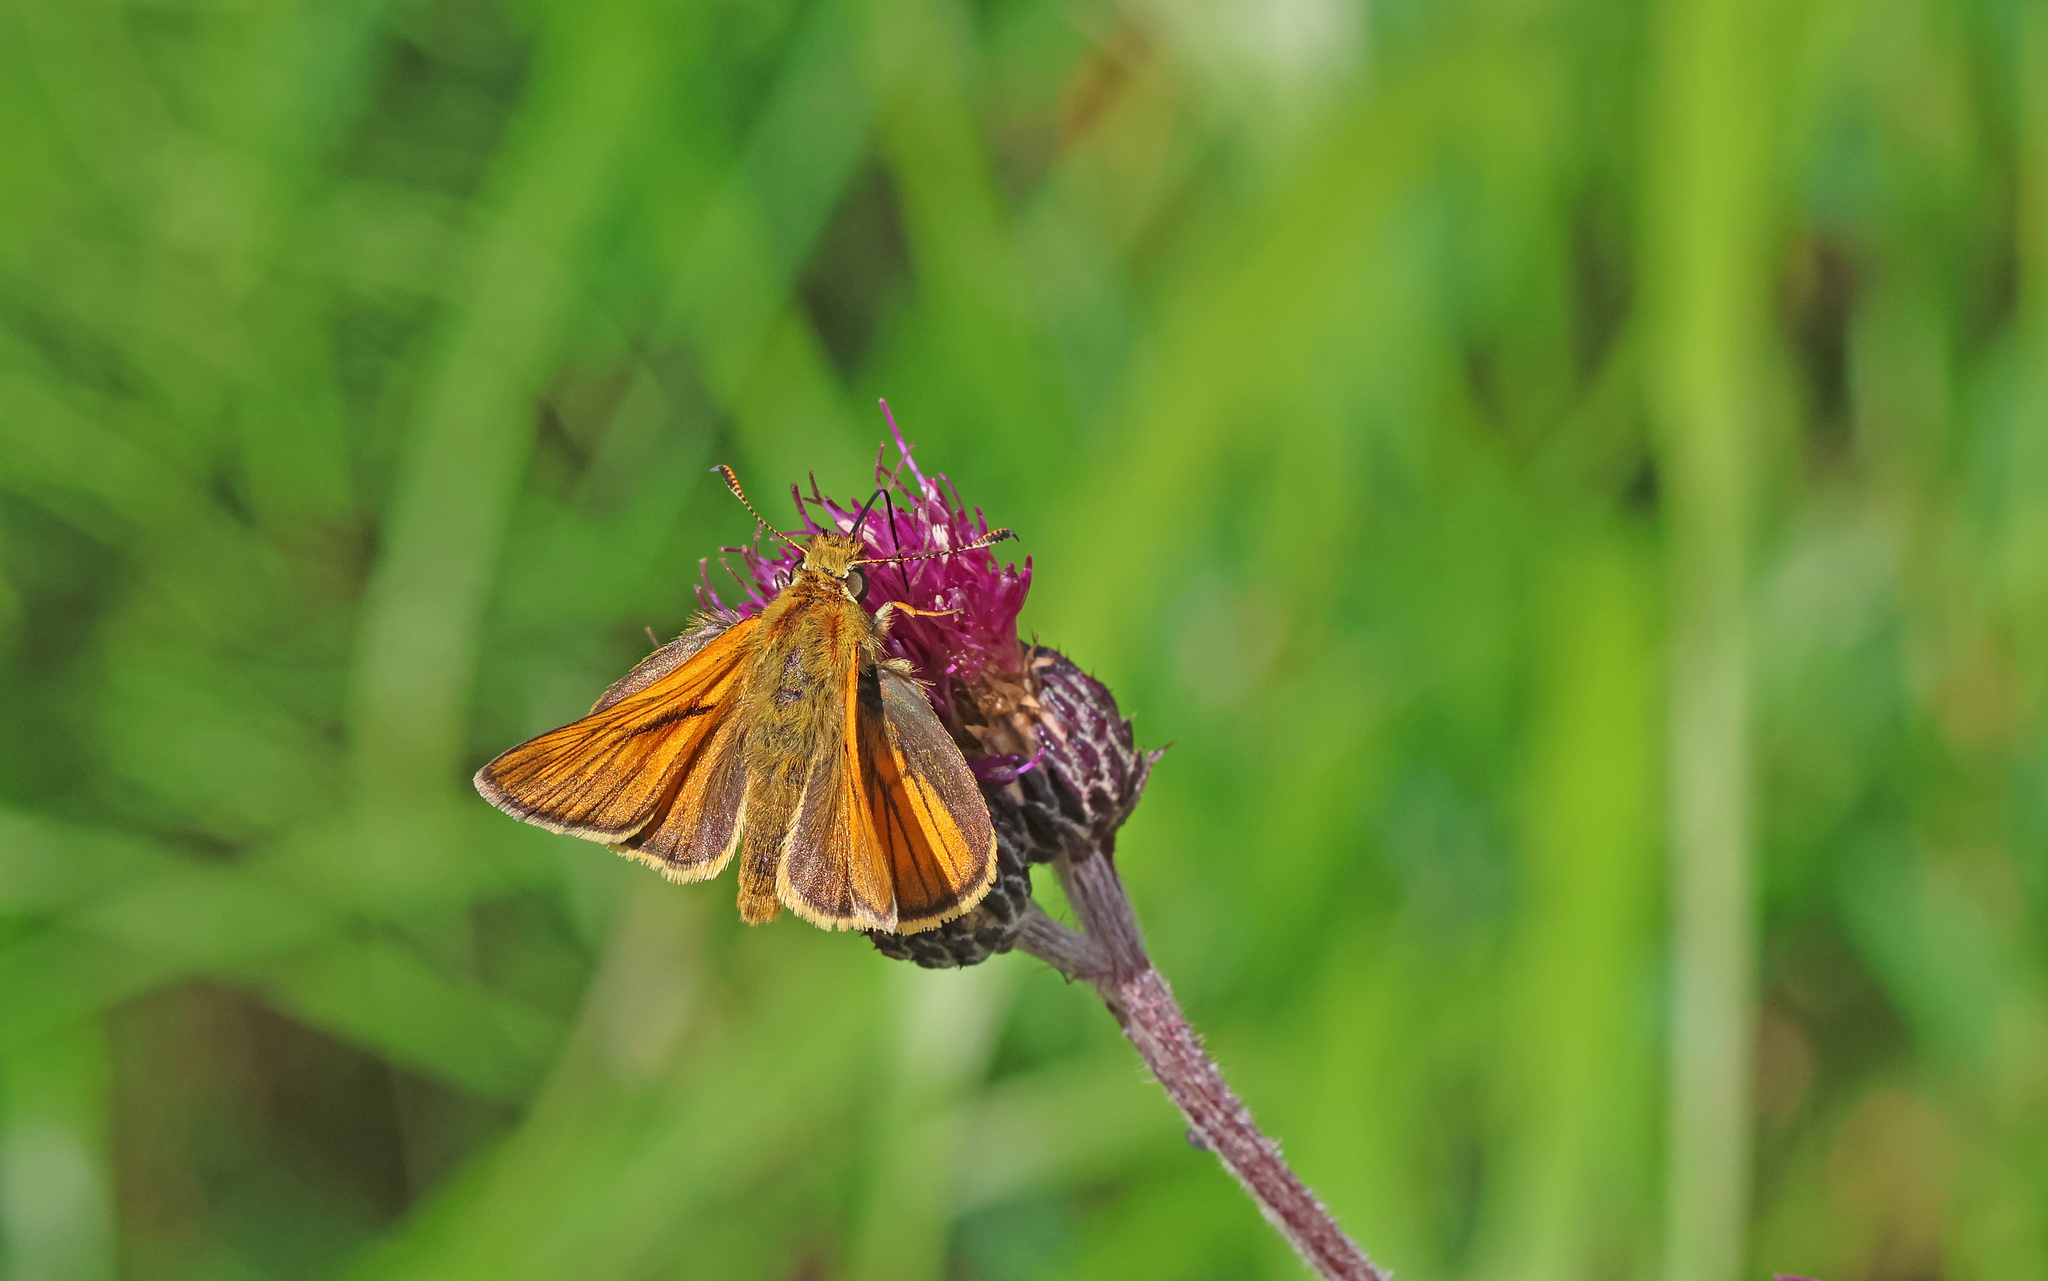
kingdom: Animalia
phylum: Arthropoda
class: Insecta
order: Lepidoptera
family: Hesperiidae
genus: Ochlodes
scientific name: Ochlodes venata
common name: Large skipper
